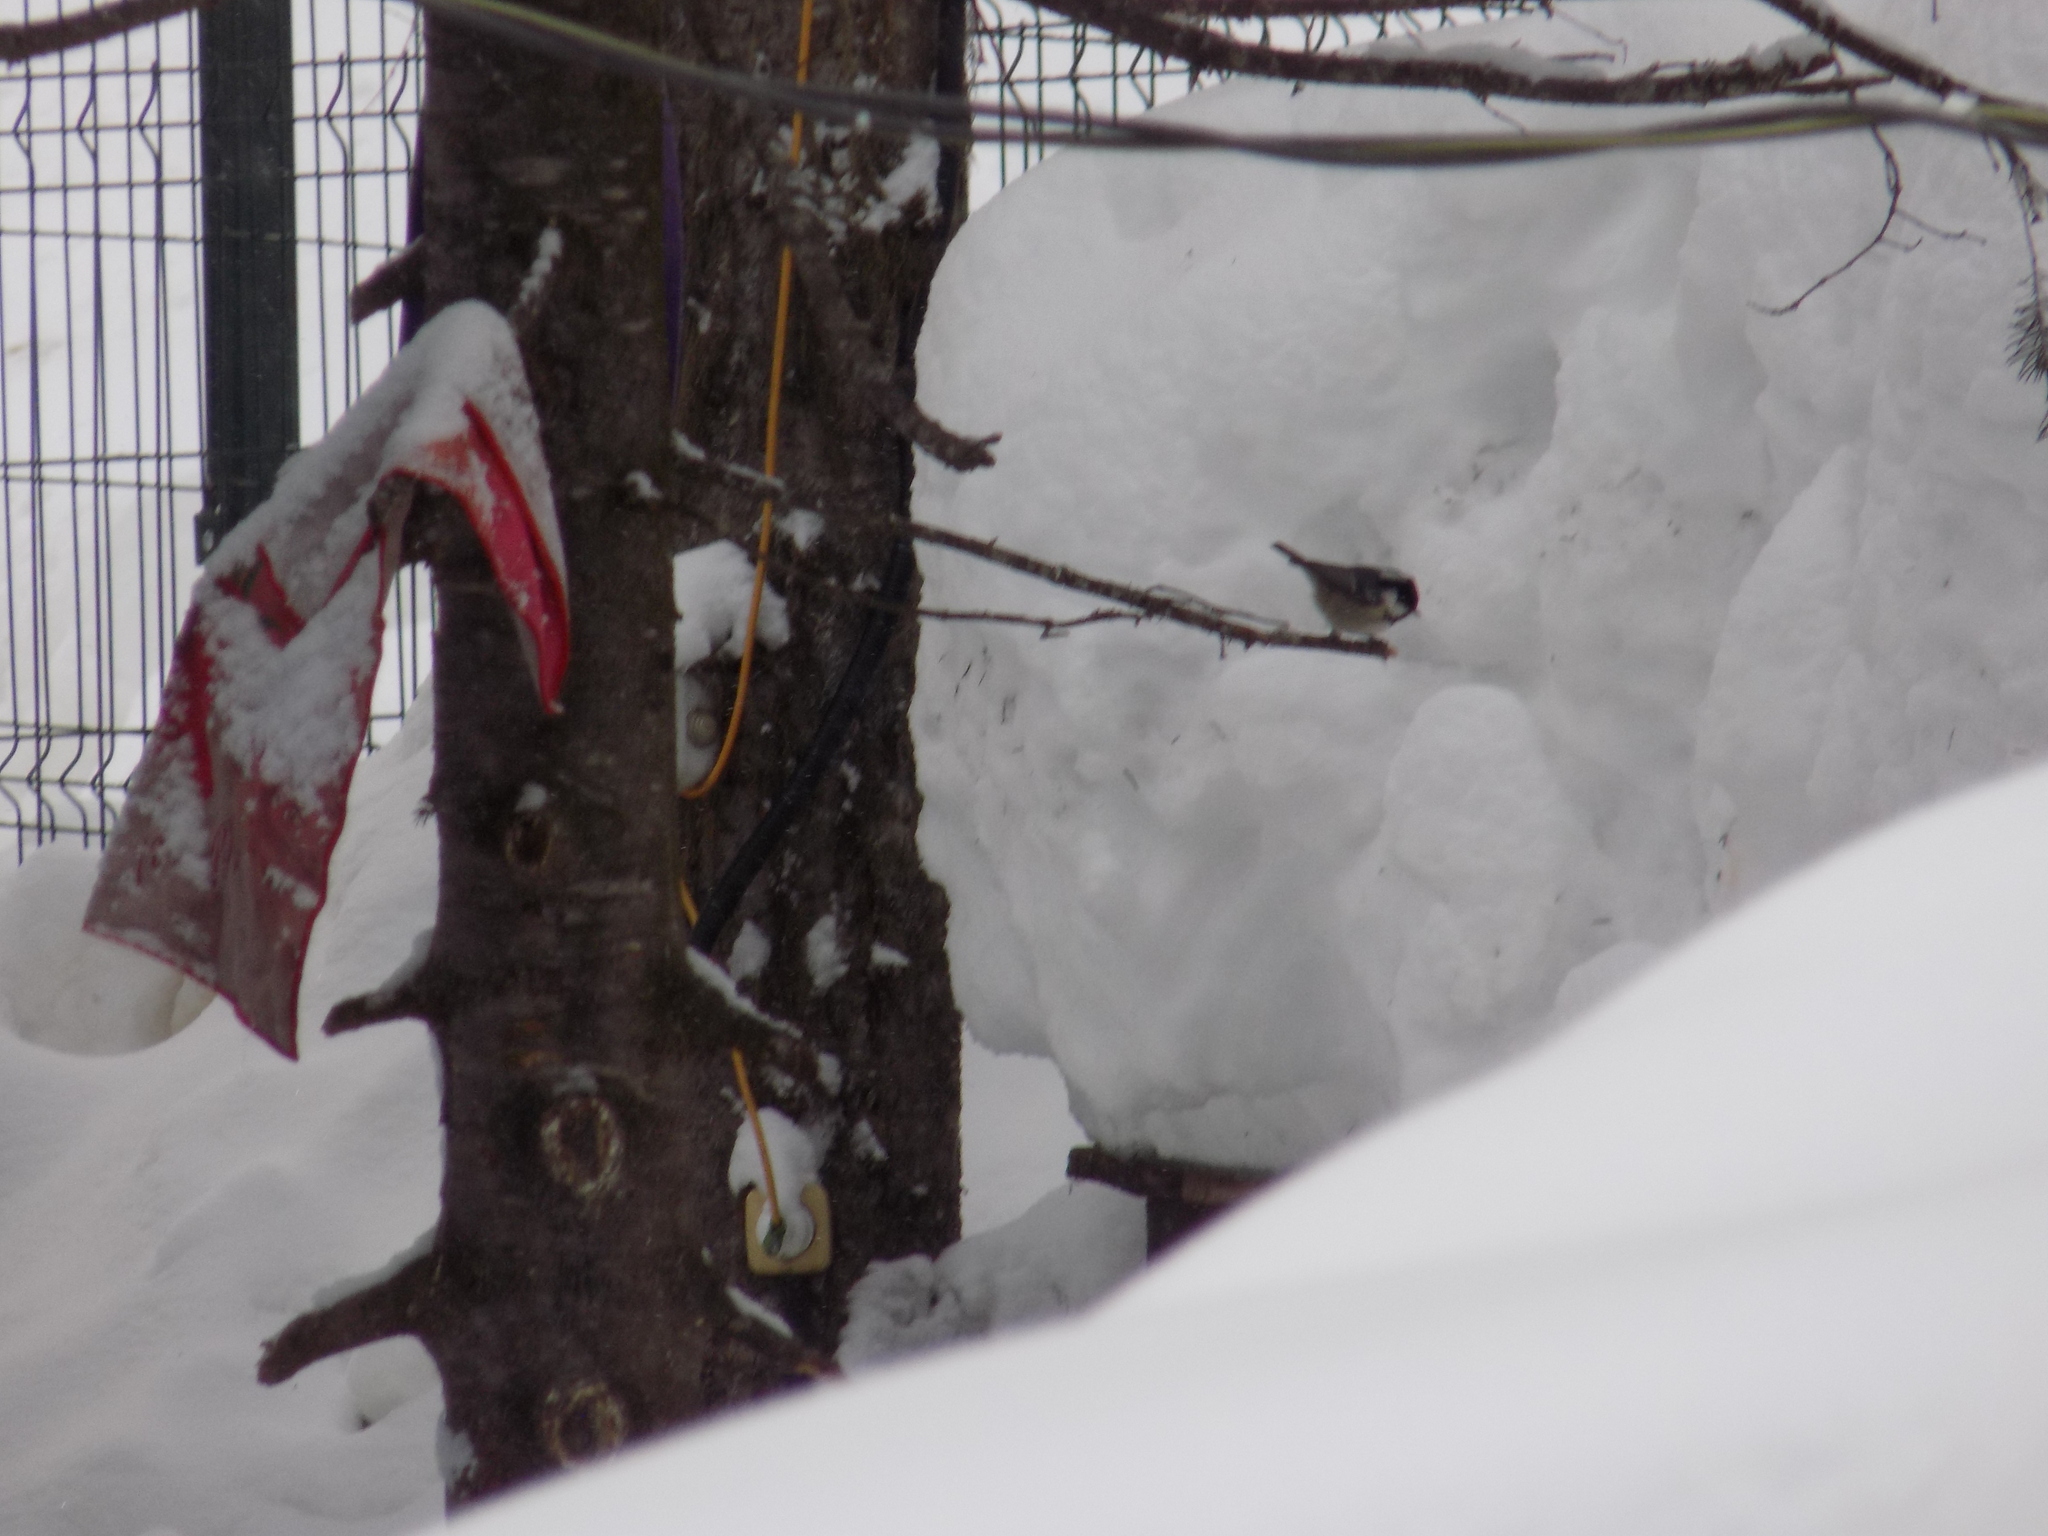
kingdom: Animalia
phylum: Chordata
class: Aves
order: Passeriformes
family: Paridae
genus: Periparus
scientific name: Periparus ater
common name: Coal tit
